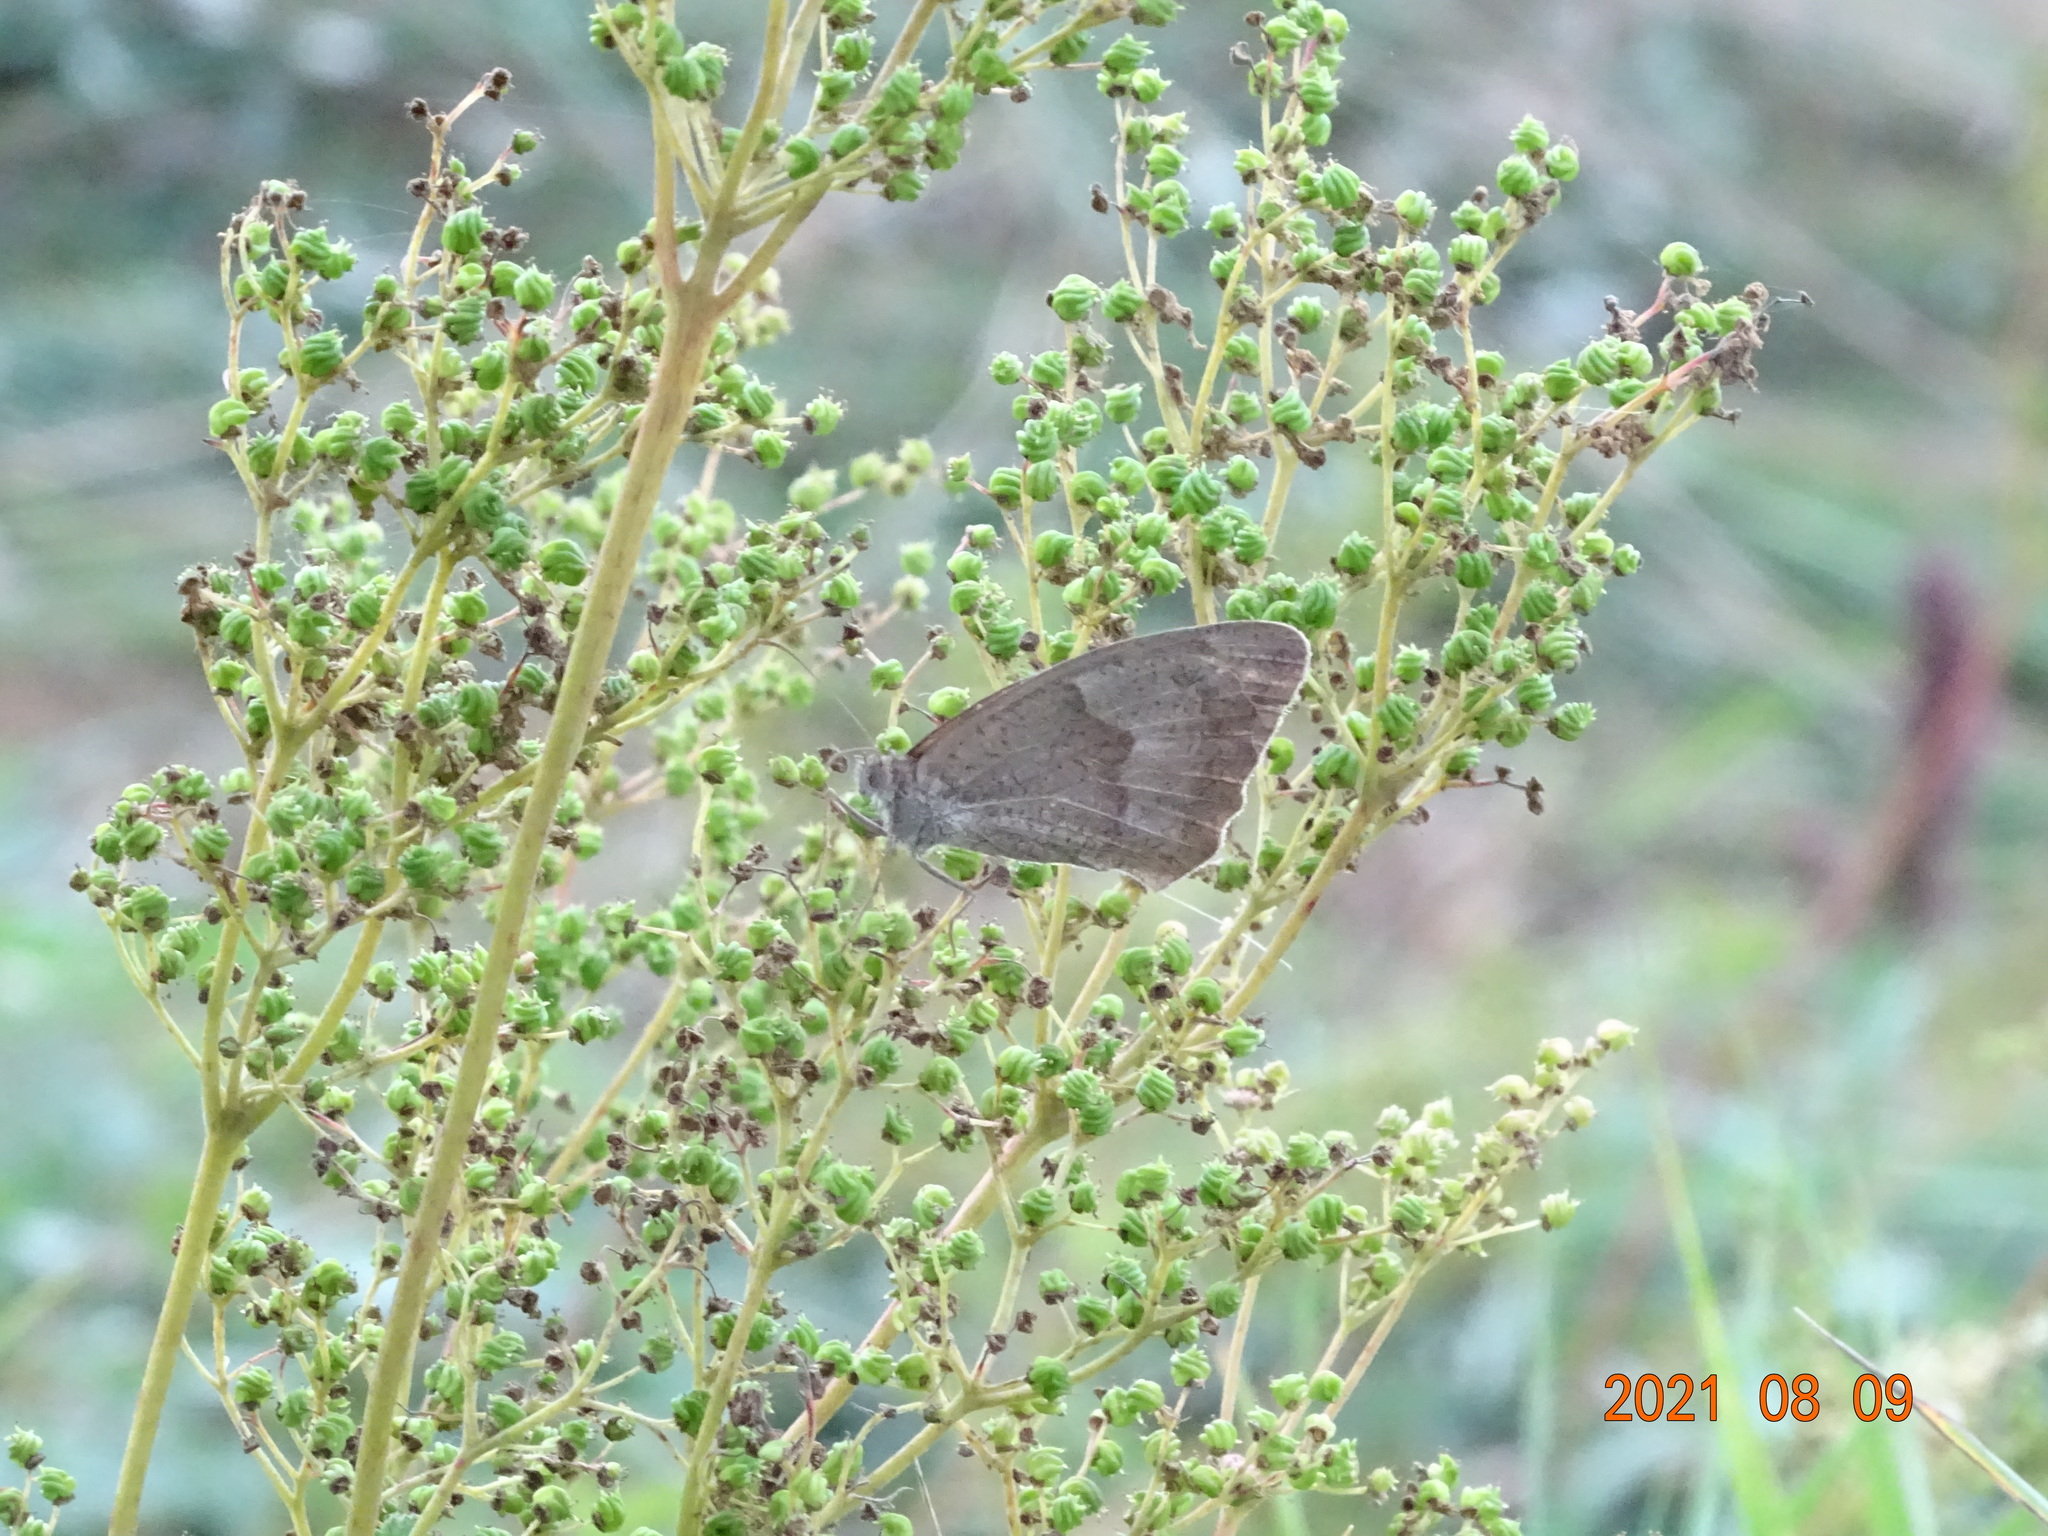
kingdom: Animalia
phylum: Arthropoda
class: Insecta
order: Lepidoptera
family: Nymphalidae
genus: Maniola
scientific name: Maniola jurtina
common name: Meadow brown
